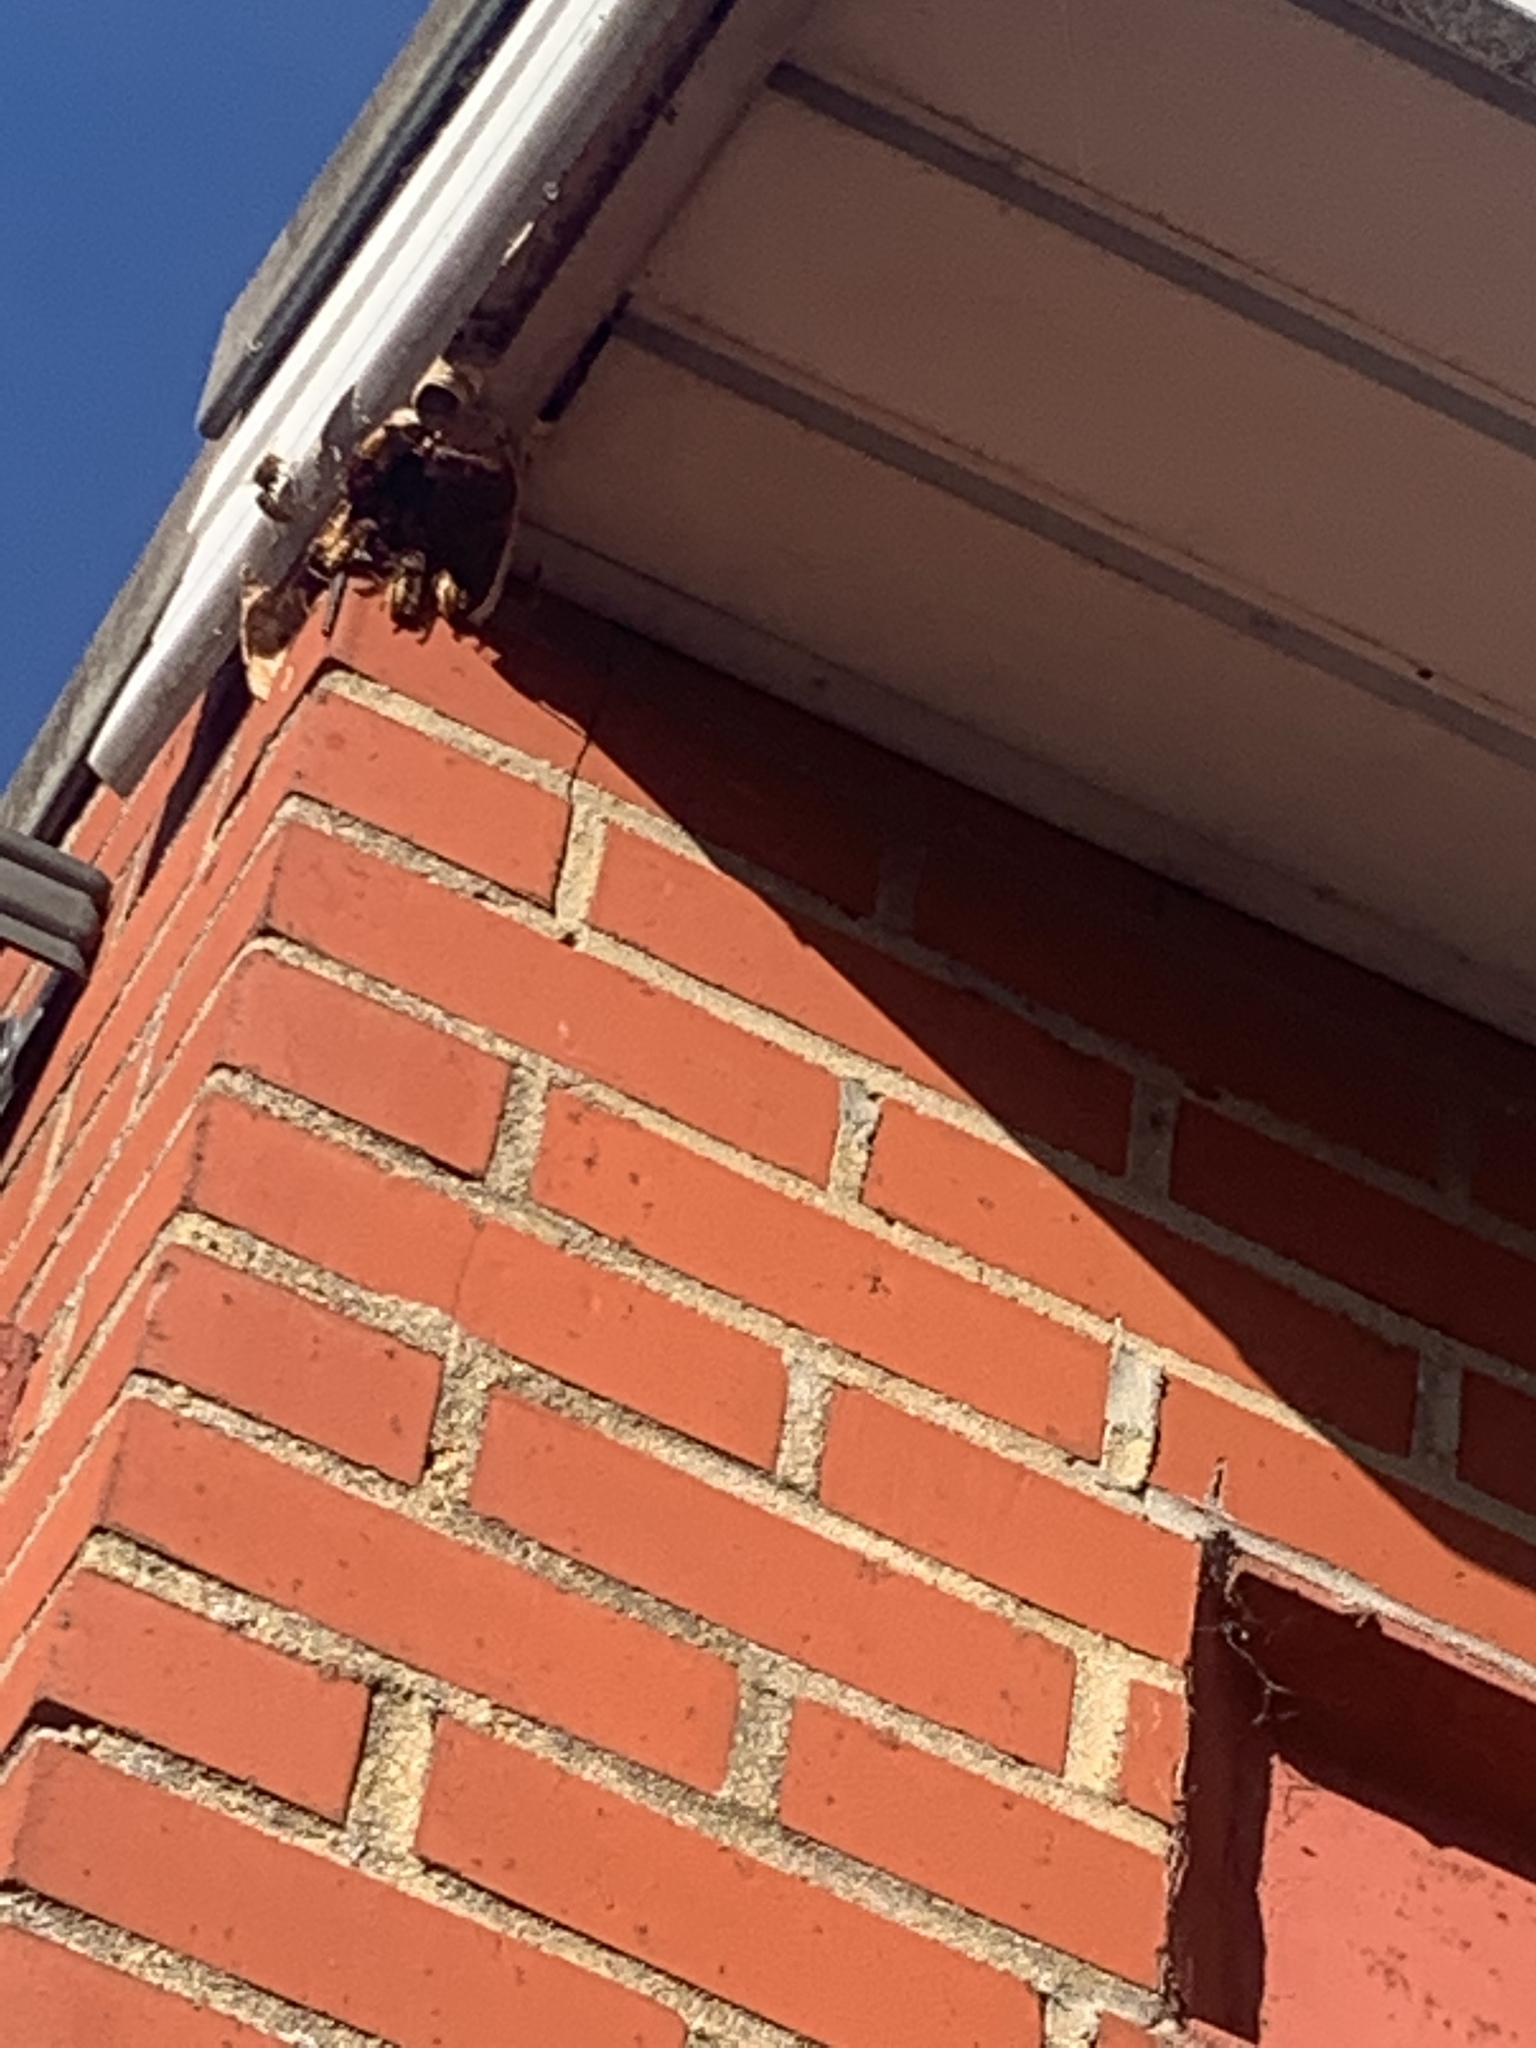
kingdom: Animalia
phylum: Arthropoda
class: Insecta
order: Hymenoptera
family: Vespidae
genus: Vespa
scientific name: Vespa crabro
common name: Hornet
